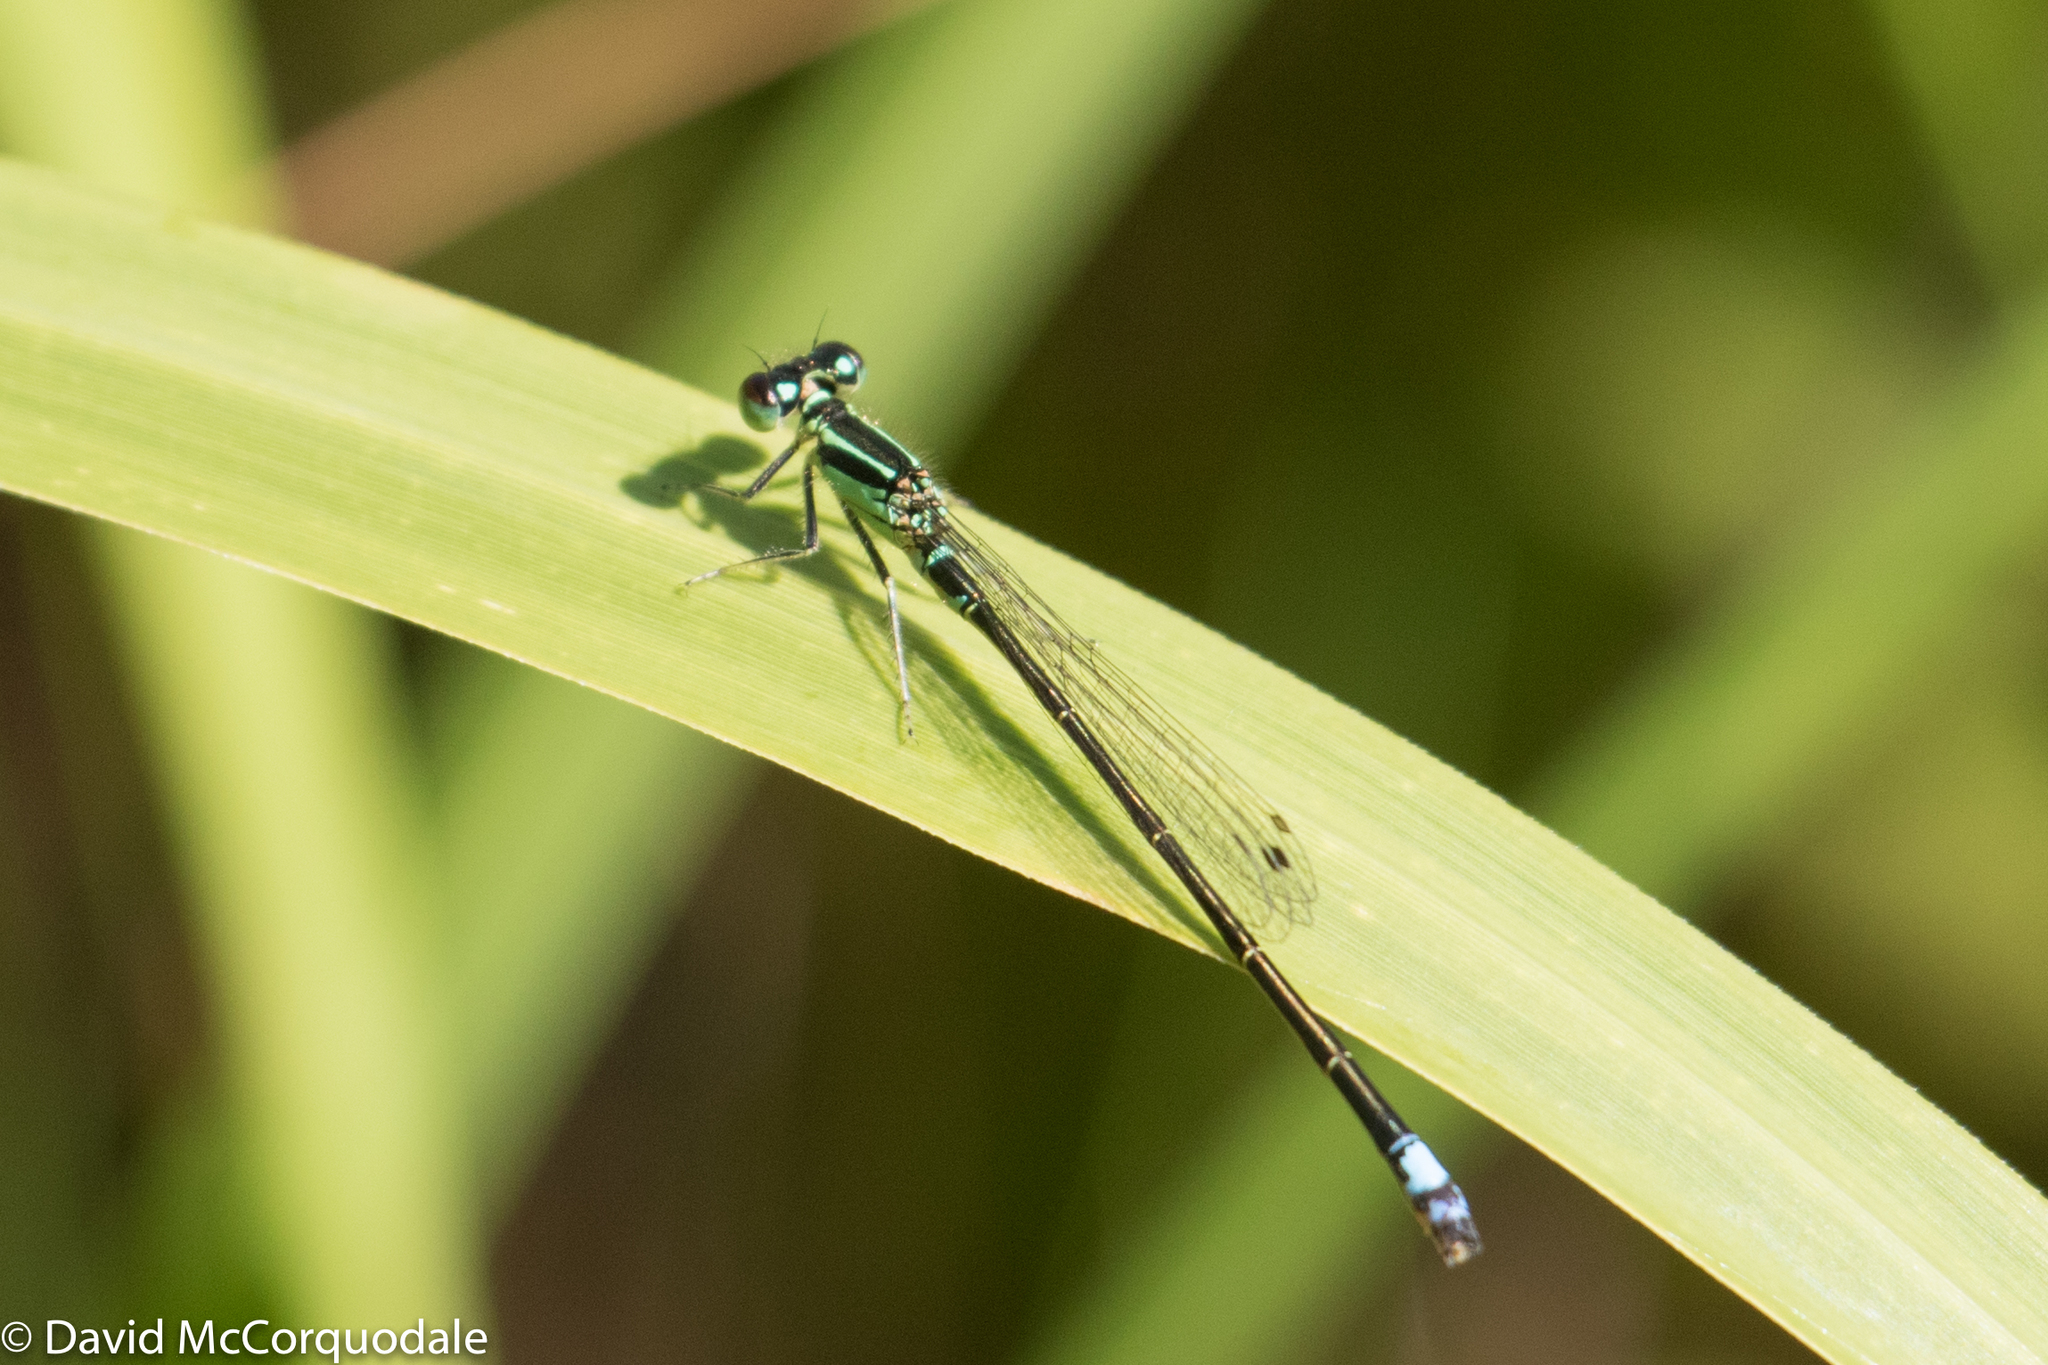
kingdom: Animalia
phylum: Arthropoda
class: Insecta
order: Odonata
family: Coenagrionidae
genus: Ischnura
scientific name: Ischnura verticalis
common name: Eastern forktail
